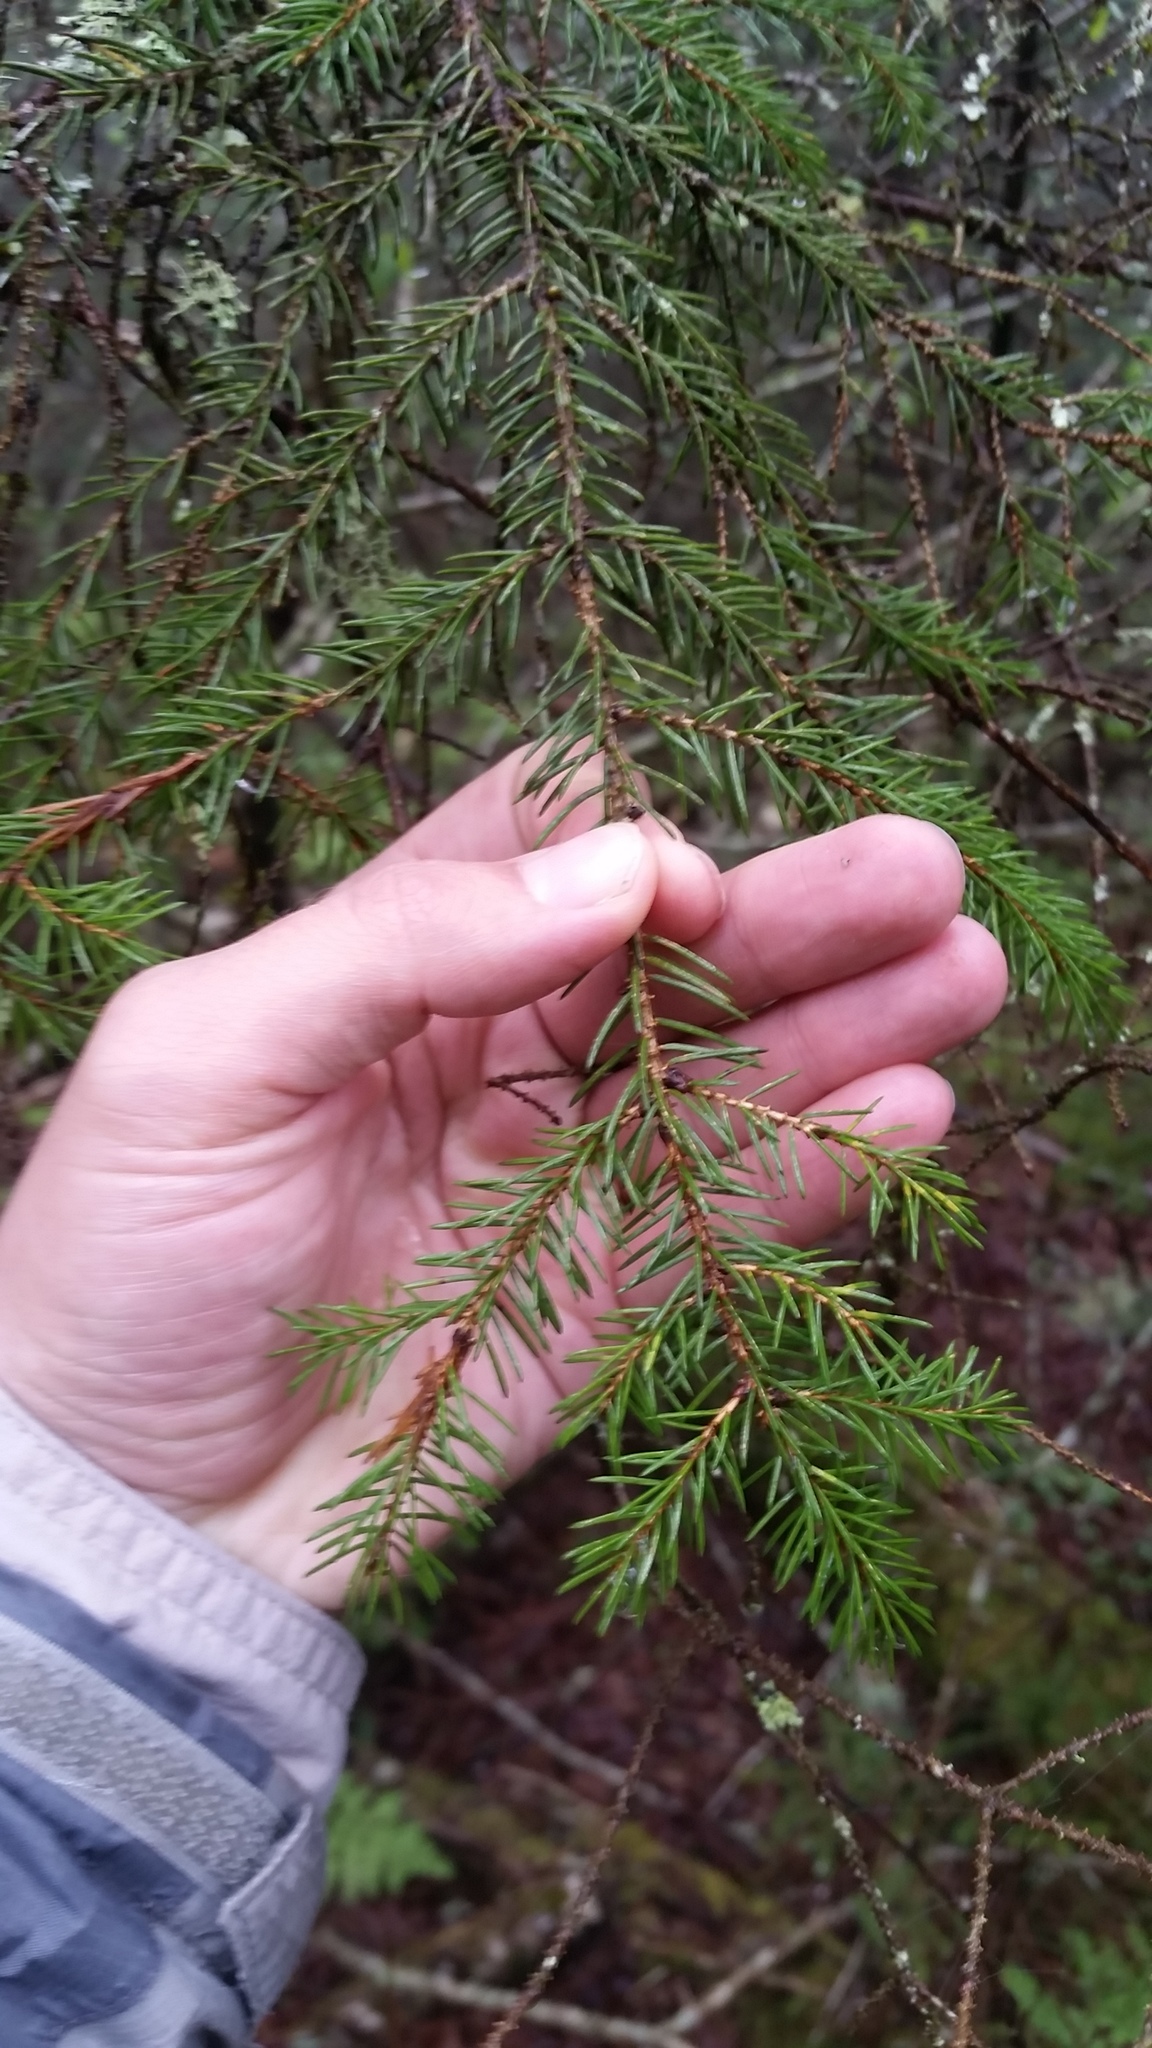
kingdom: Plantae
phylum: Tracheophyta
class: Pinopsida
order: Pinales
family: Pinaceae
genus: Picea
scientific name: Picea rubens
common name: Red spruce
